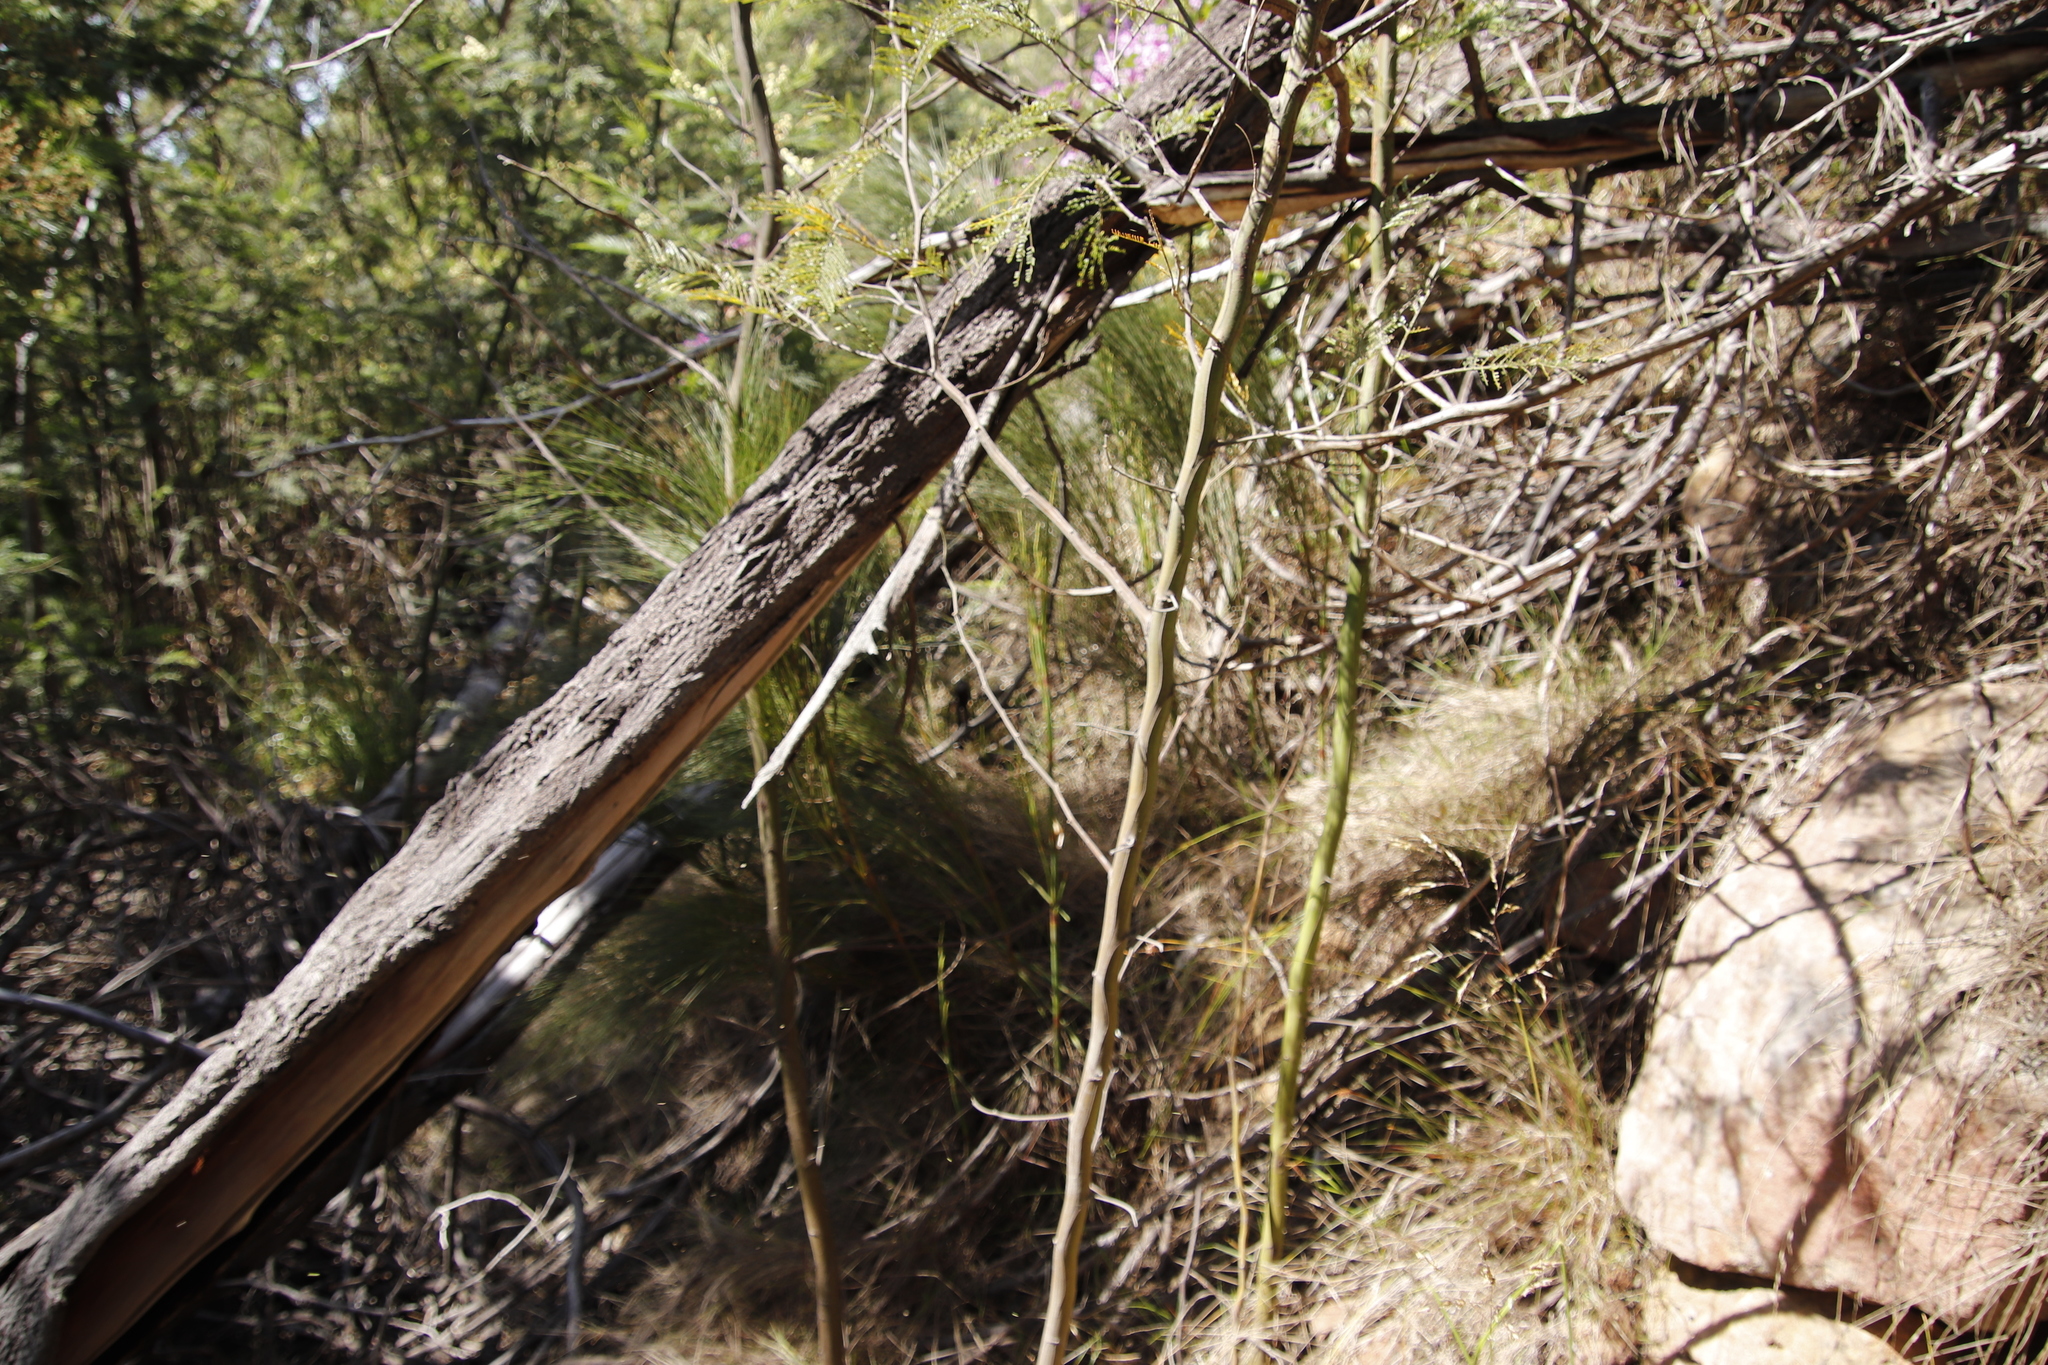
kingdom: Plantae
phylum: Tracheophyta
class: Liliopsida
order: Poales
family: Restionaceae
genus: Cannomois
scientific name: Cannomois virgata
